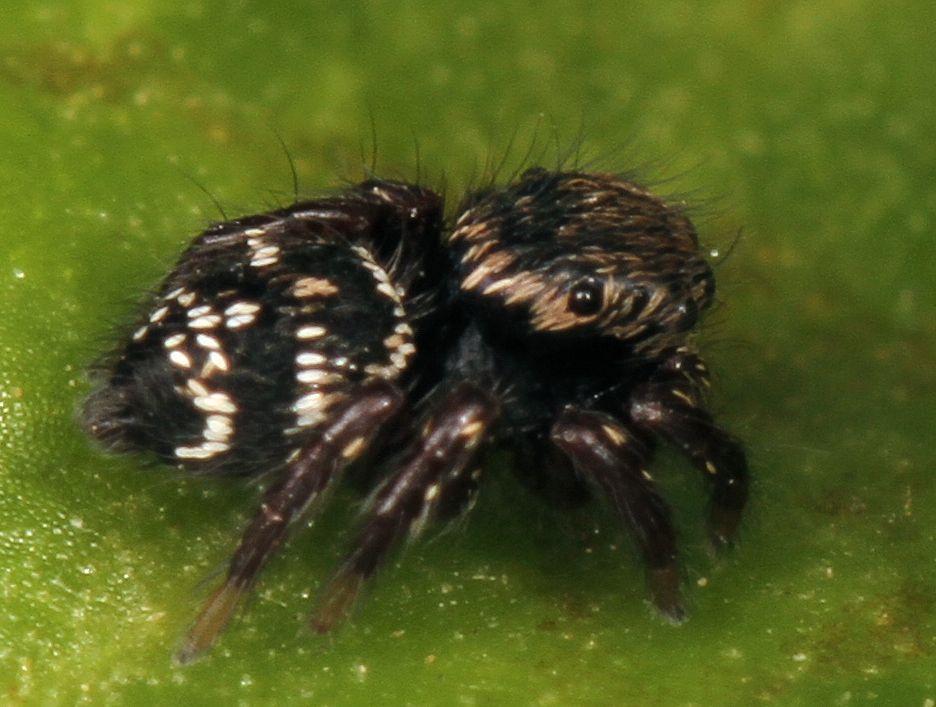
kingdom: Animalia
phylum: Arthropoda
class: Arachnida
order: Araneae
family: Salticidae
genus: Baryphas
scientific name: Baryphas ahenus
